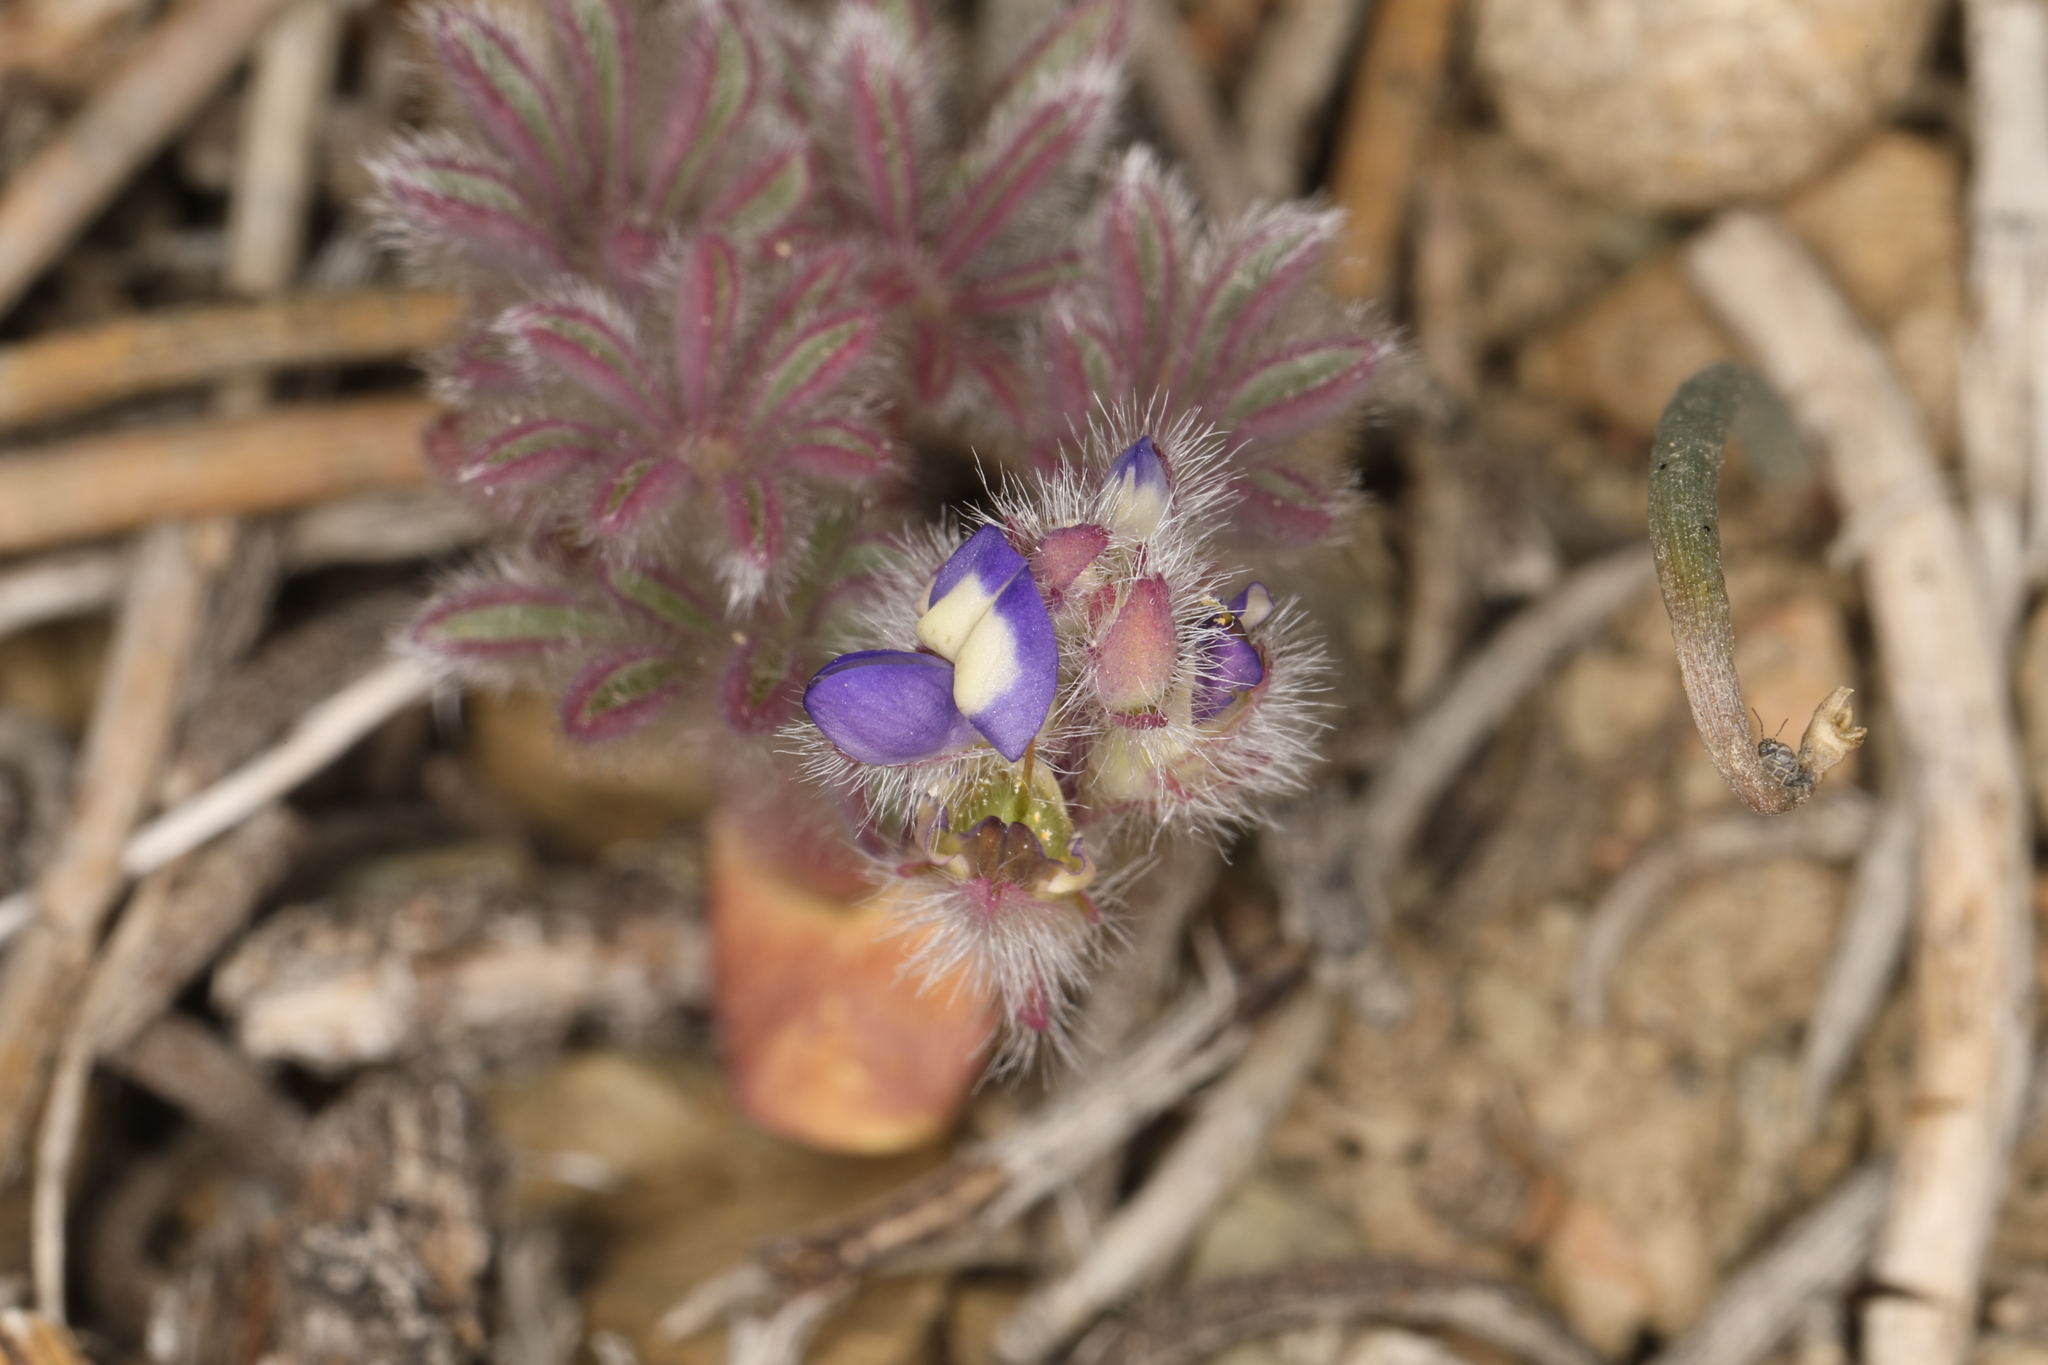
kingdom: Plantae
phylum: Tracheophyta
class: Magnoliopsida
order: Fabales
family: Fabaceae
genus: Lupinus
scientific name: Lupinus brevicaulis
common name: Sand lupine
